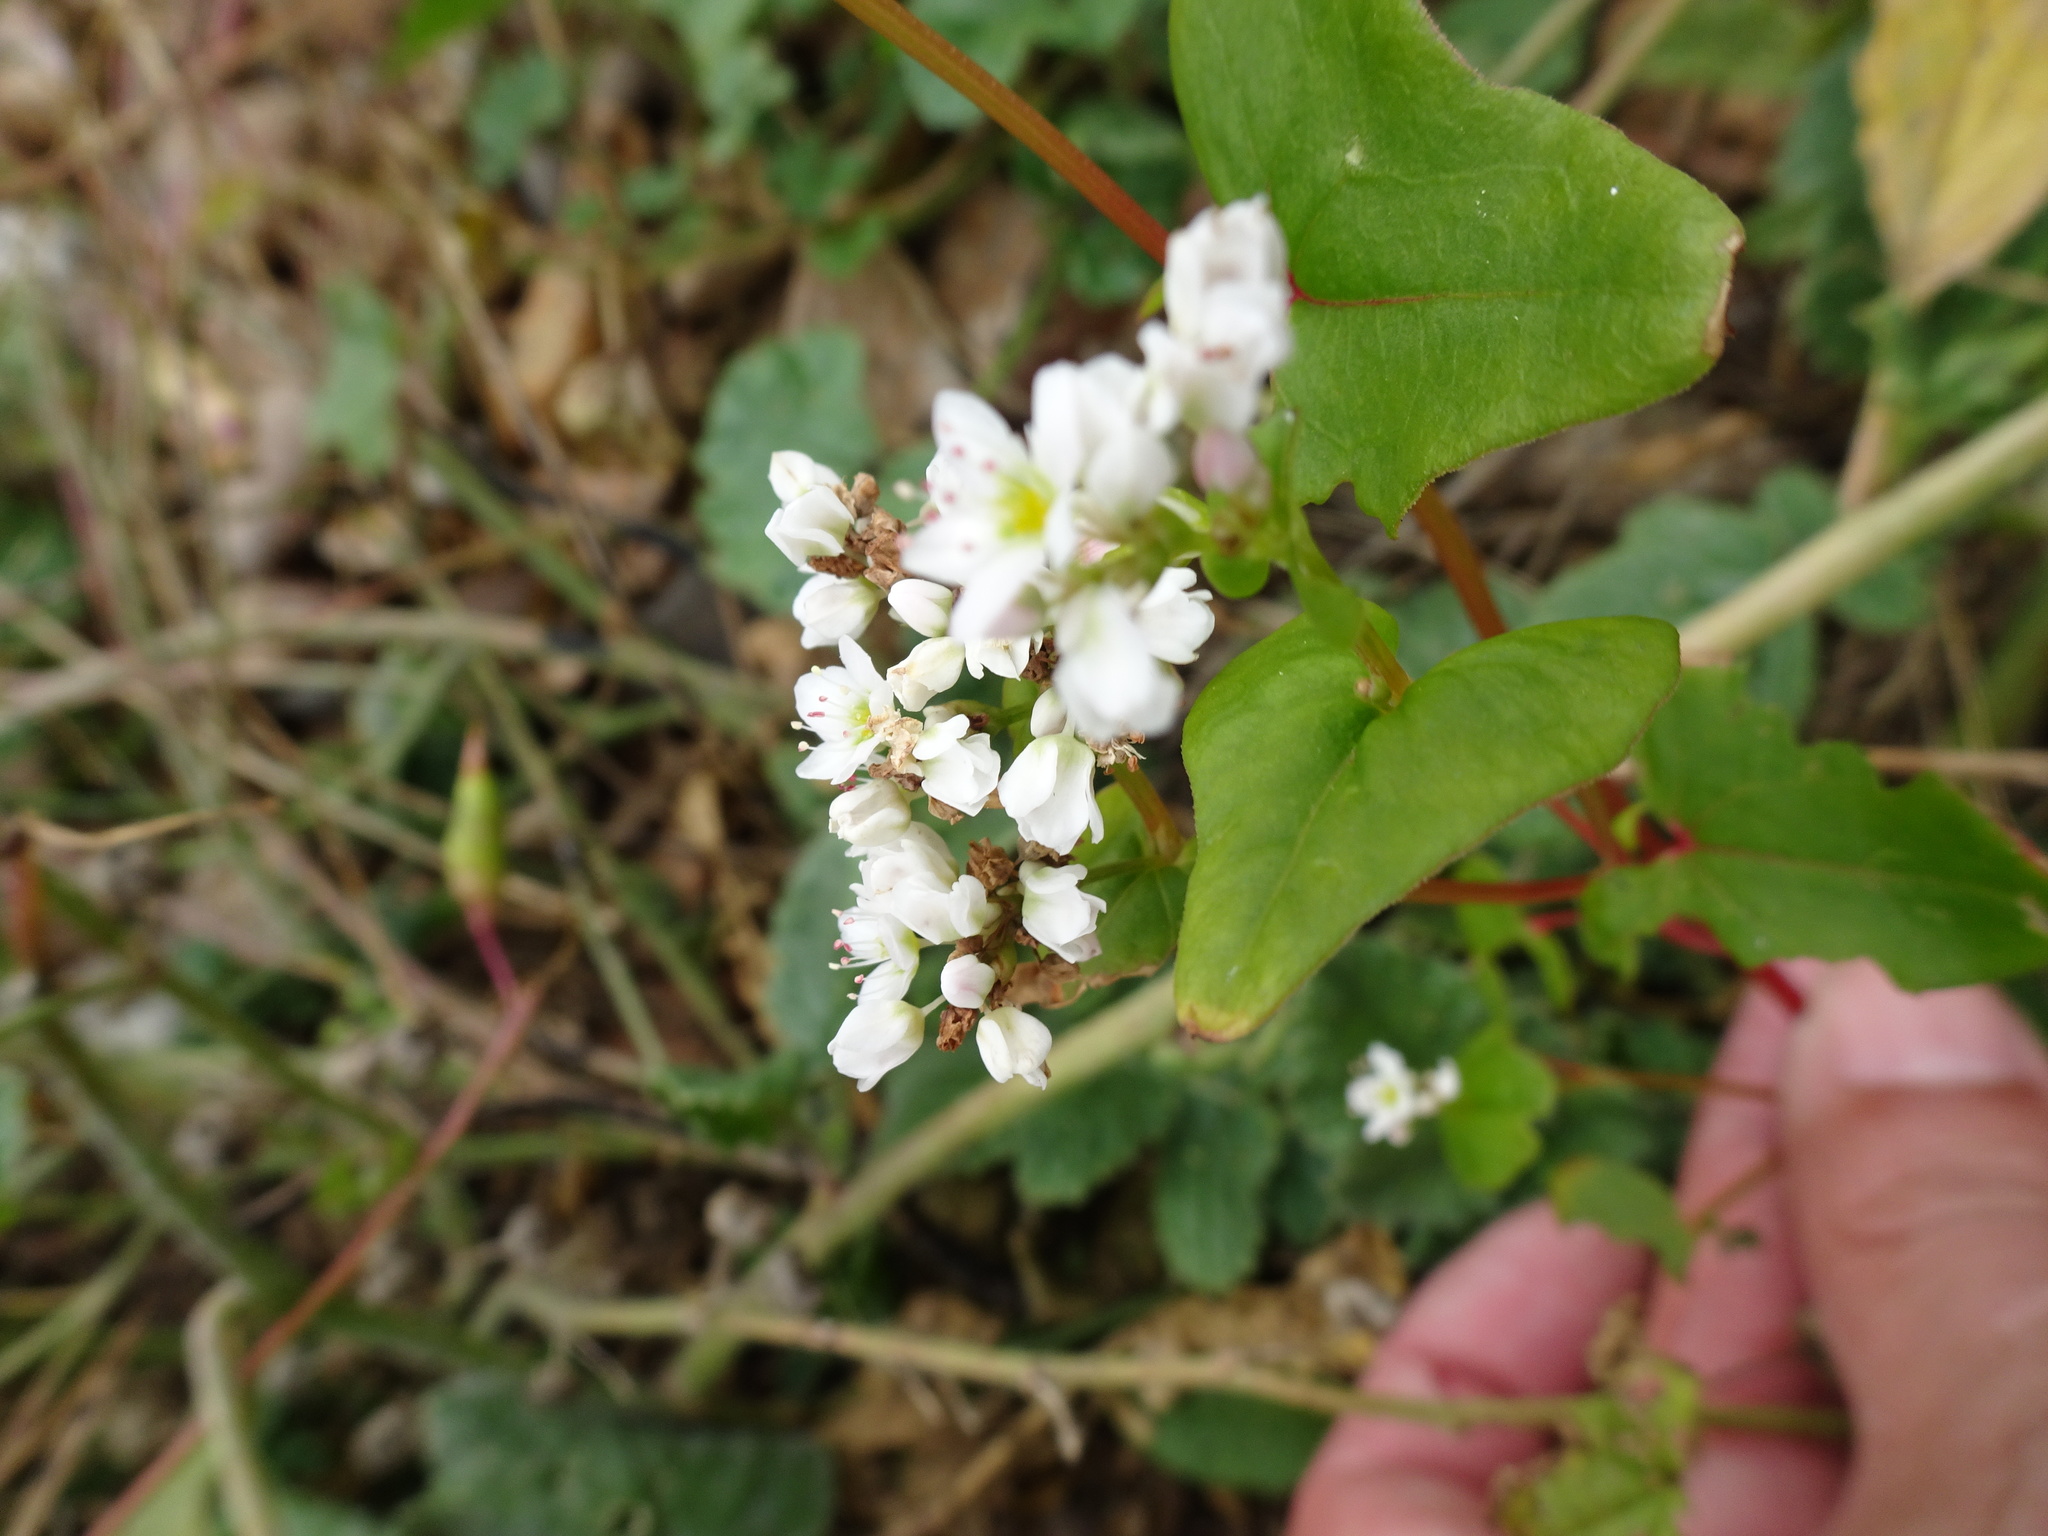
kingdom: Plantae
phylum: Tracheophyta
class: Magnoliopsida
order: Caryophyllales
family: Polygonaceae
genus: Fagopyrum
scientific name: Fagopyrum esculentum
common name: Buckwheat
